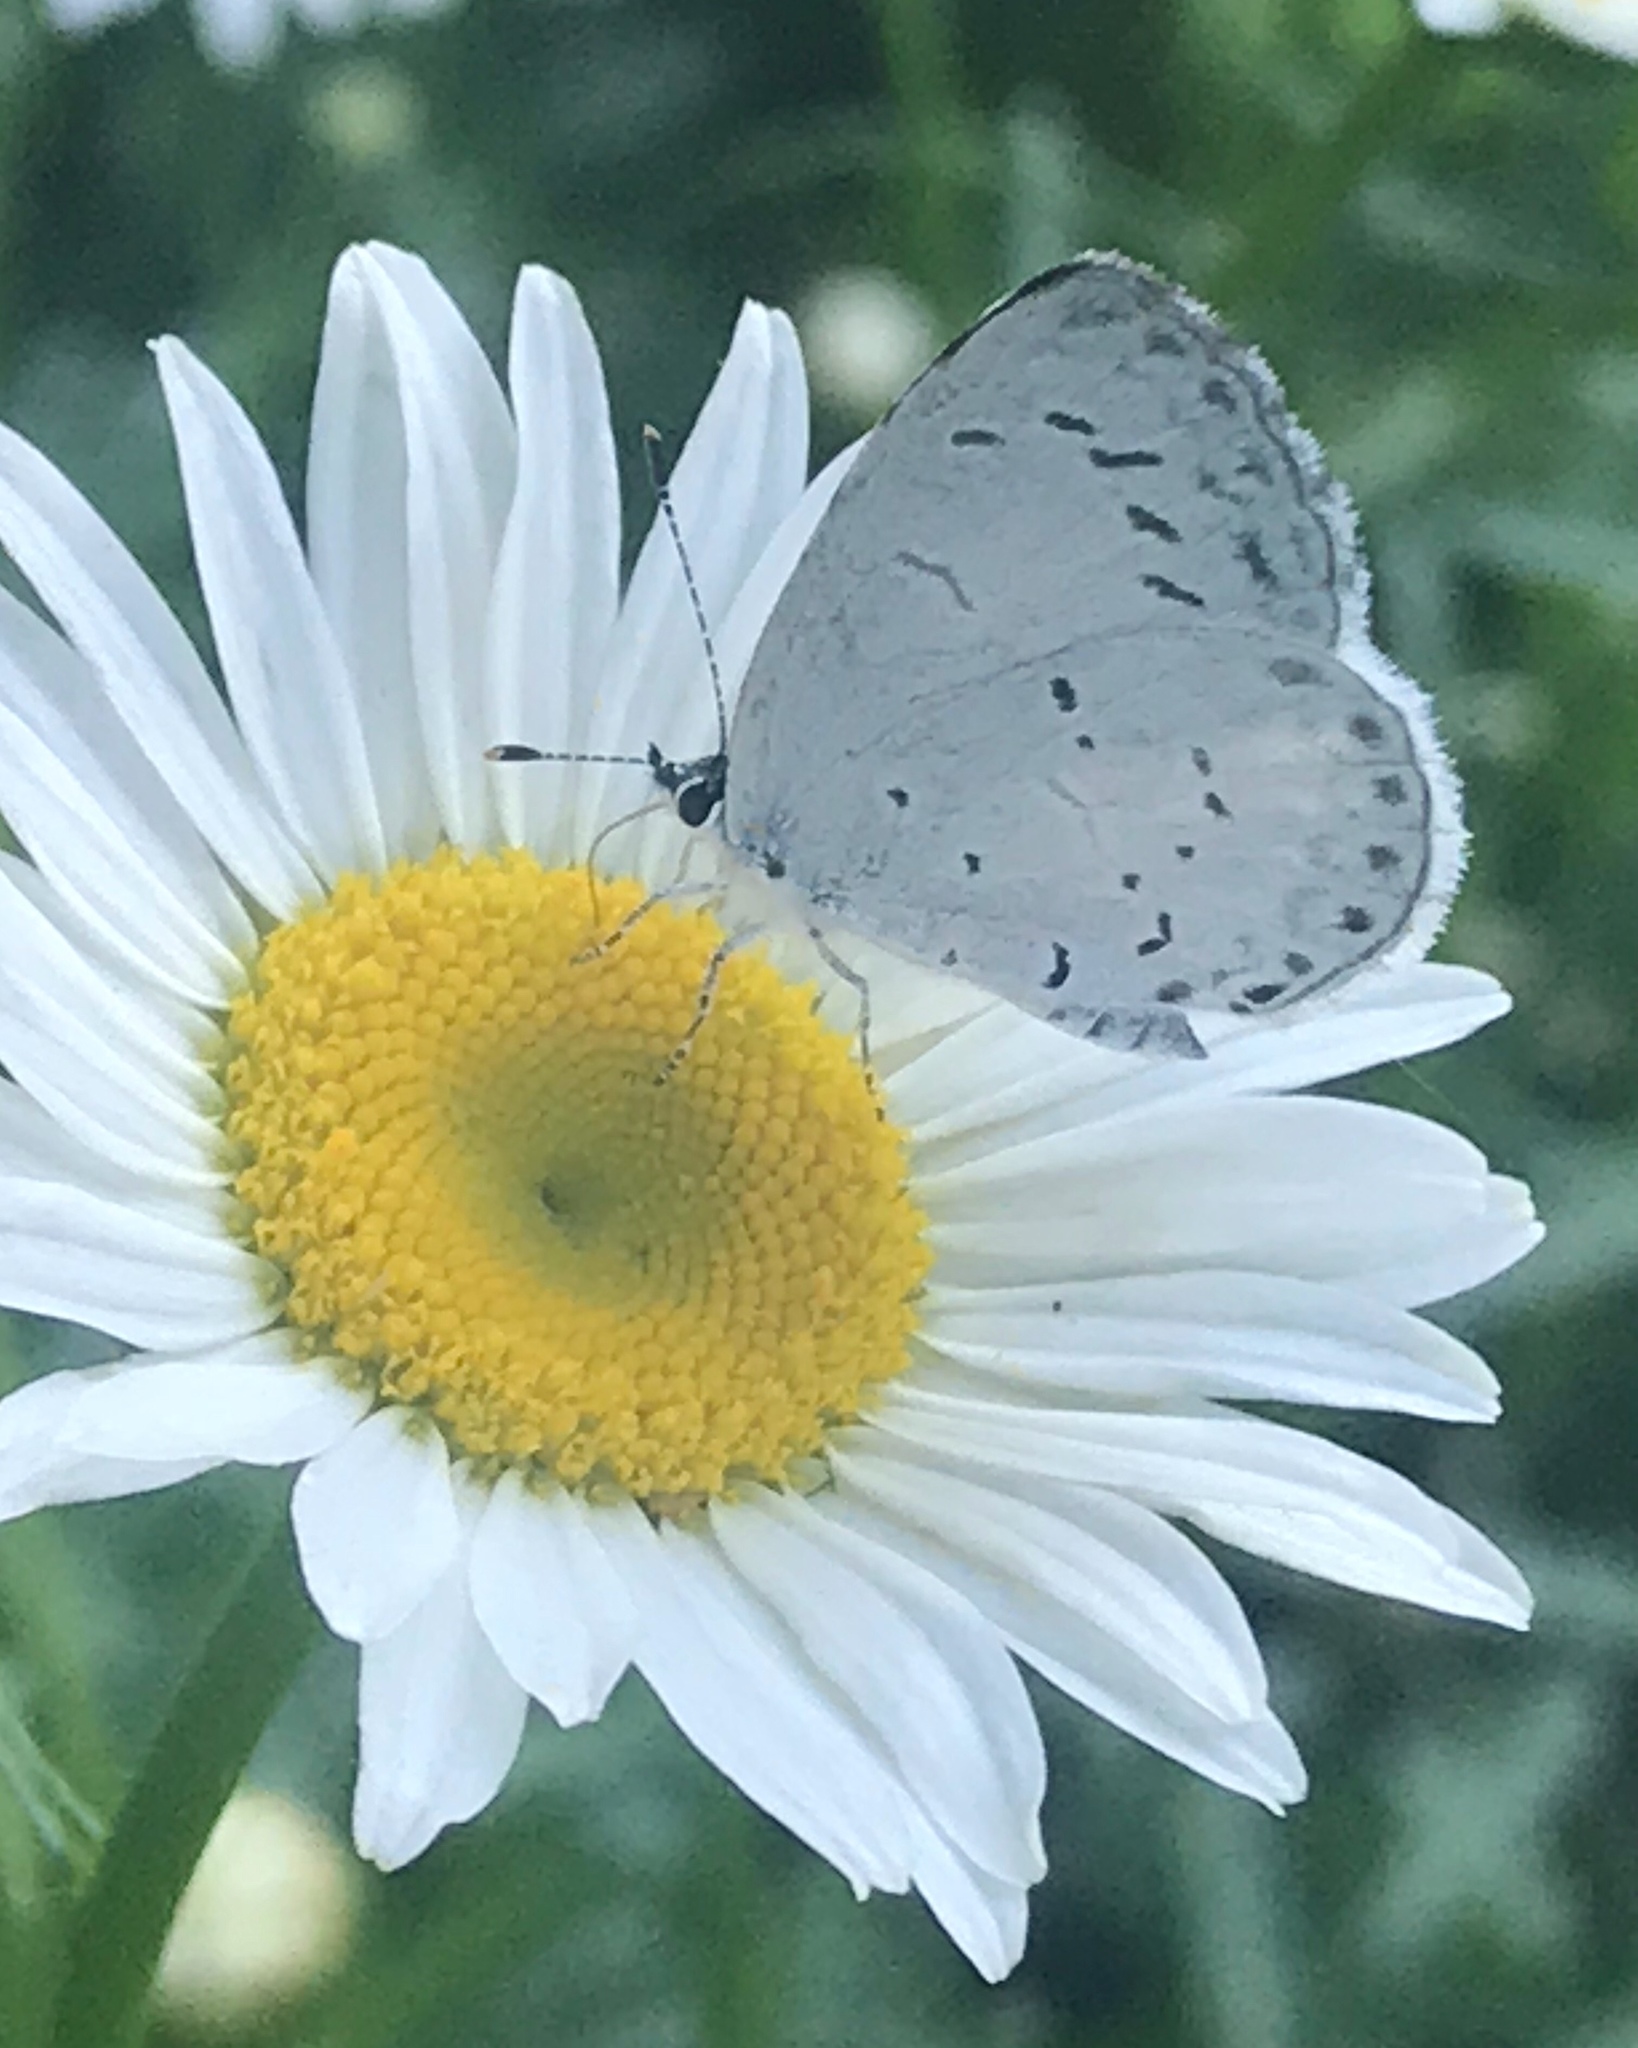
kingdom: Animalia
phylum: Arthropoda
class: Insecta
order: Lepidoptera
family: Lycaenidae
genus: Cyaniris
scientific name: Cyaniris neglecta
